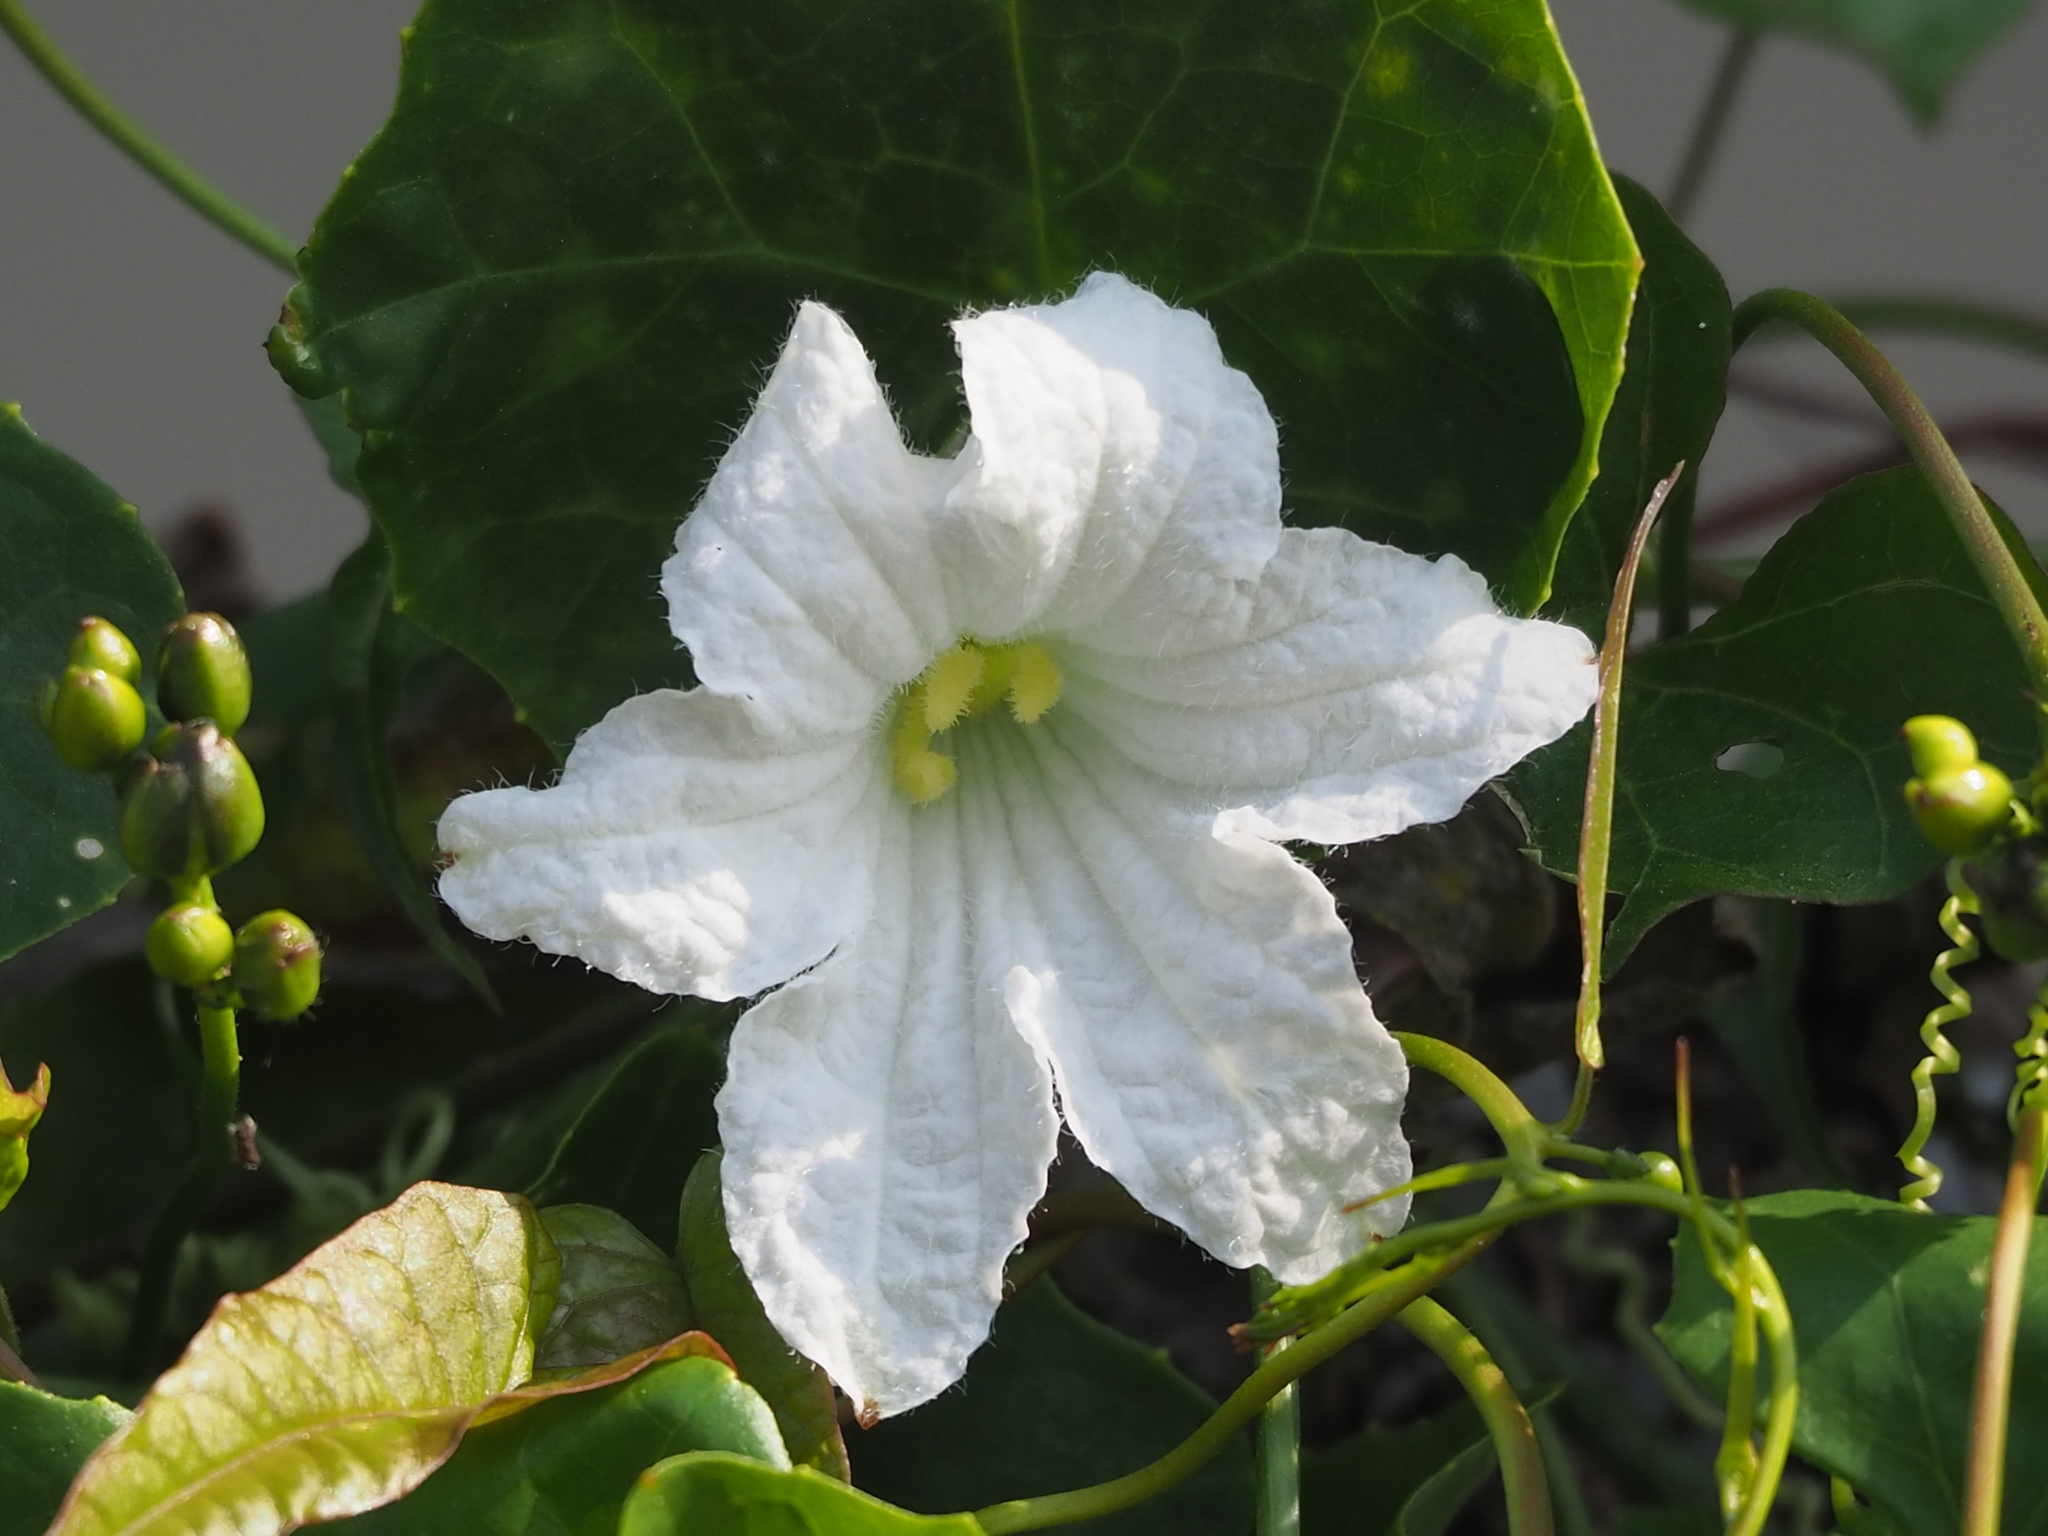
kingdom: Plantae
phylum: Tracheophyta
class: Magnoliopsida
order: Cucurbitales
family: Cucurbitaceae
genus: Coccinia
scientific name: Coccinia grandis
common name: Ivy gourd
